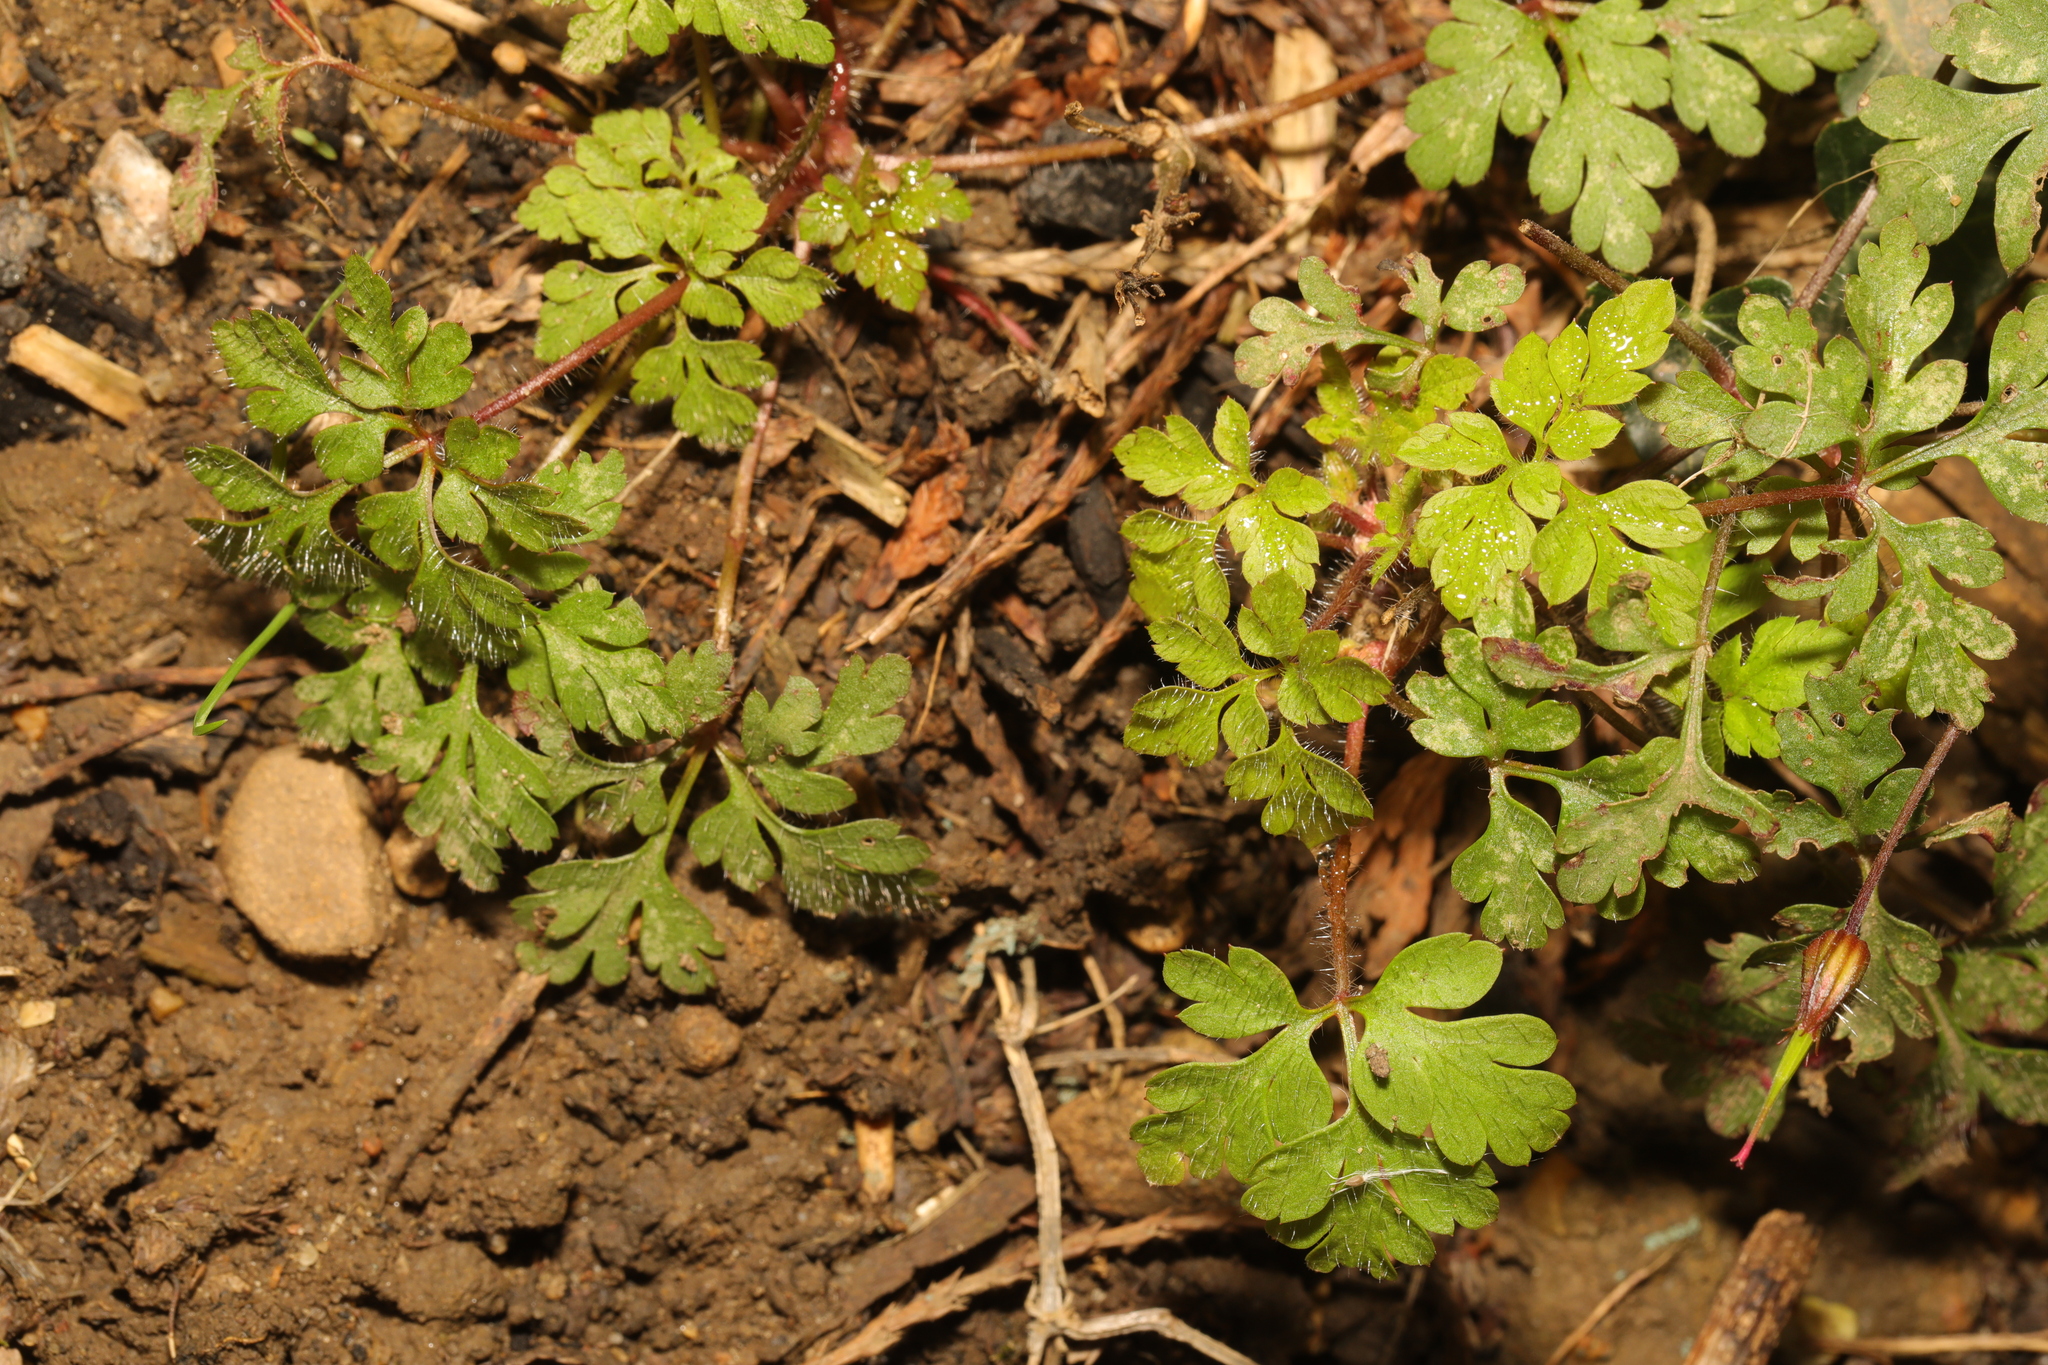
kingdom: Plantae
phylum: Tracheophyta
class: Magnoliopsida
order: Geraniales
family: Geraniaceae
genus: Geranium
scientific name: Geranium robertianum
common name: Herb-robert
